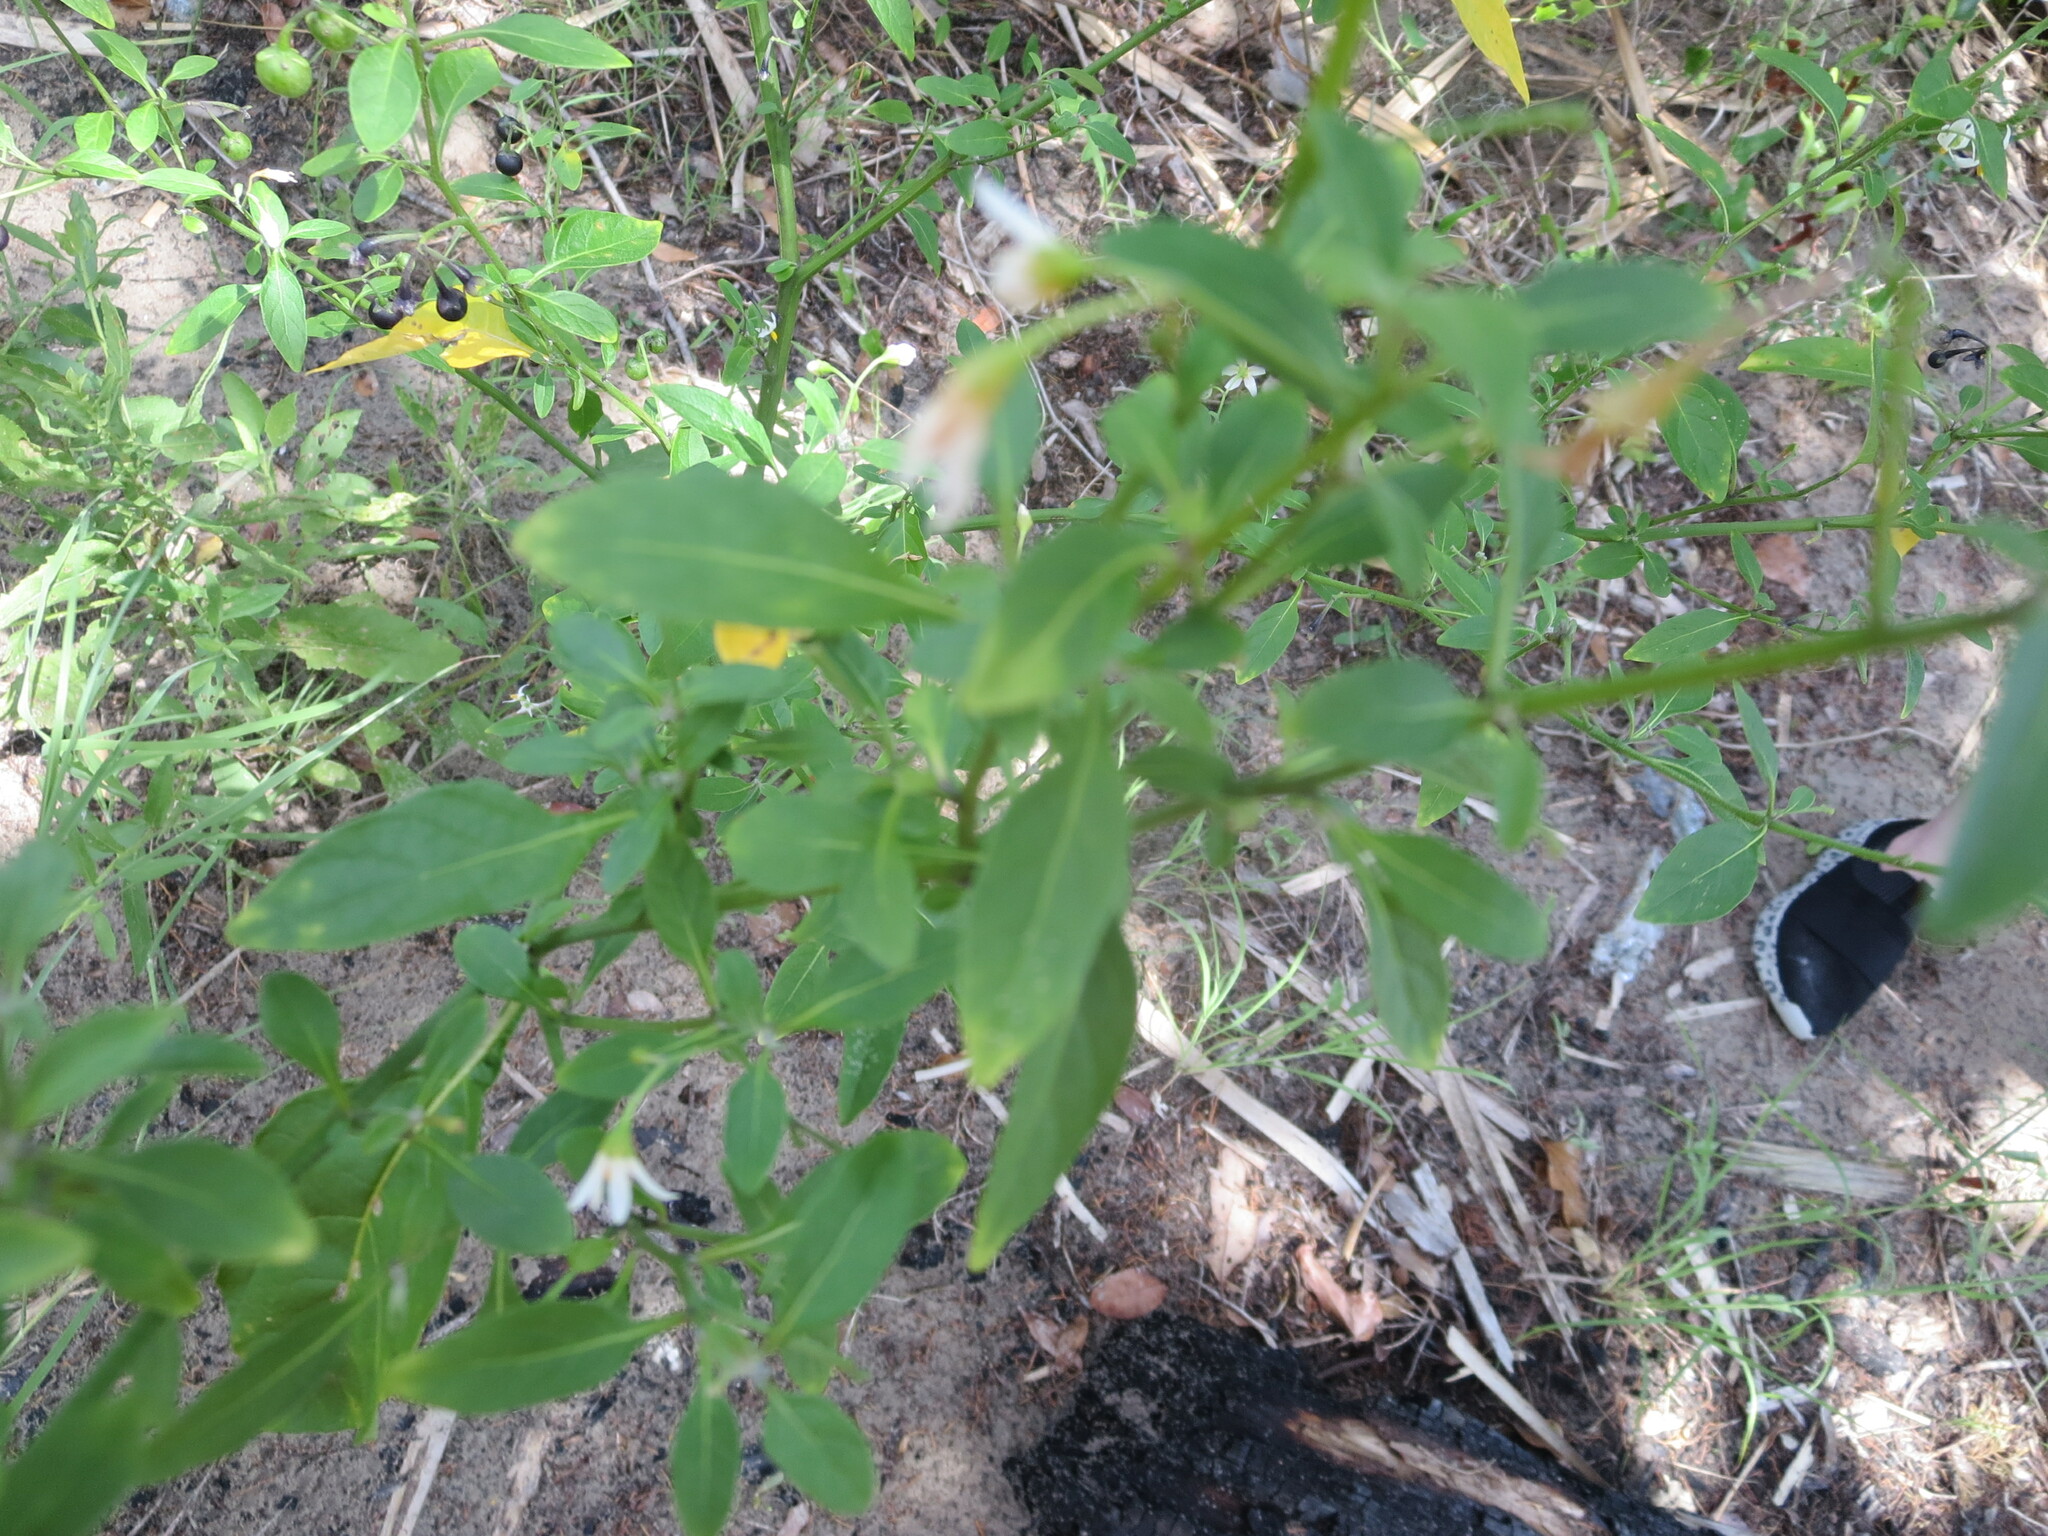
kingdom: Plantae
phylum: Tracheophyta
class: Magnoliopsida
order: Solanales
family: Solanaceae
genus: Solanum
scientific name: Solanum pseudogracile
